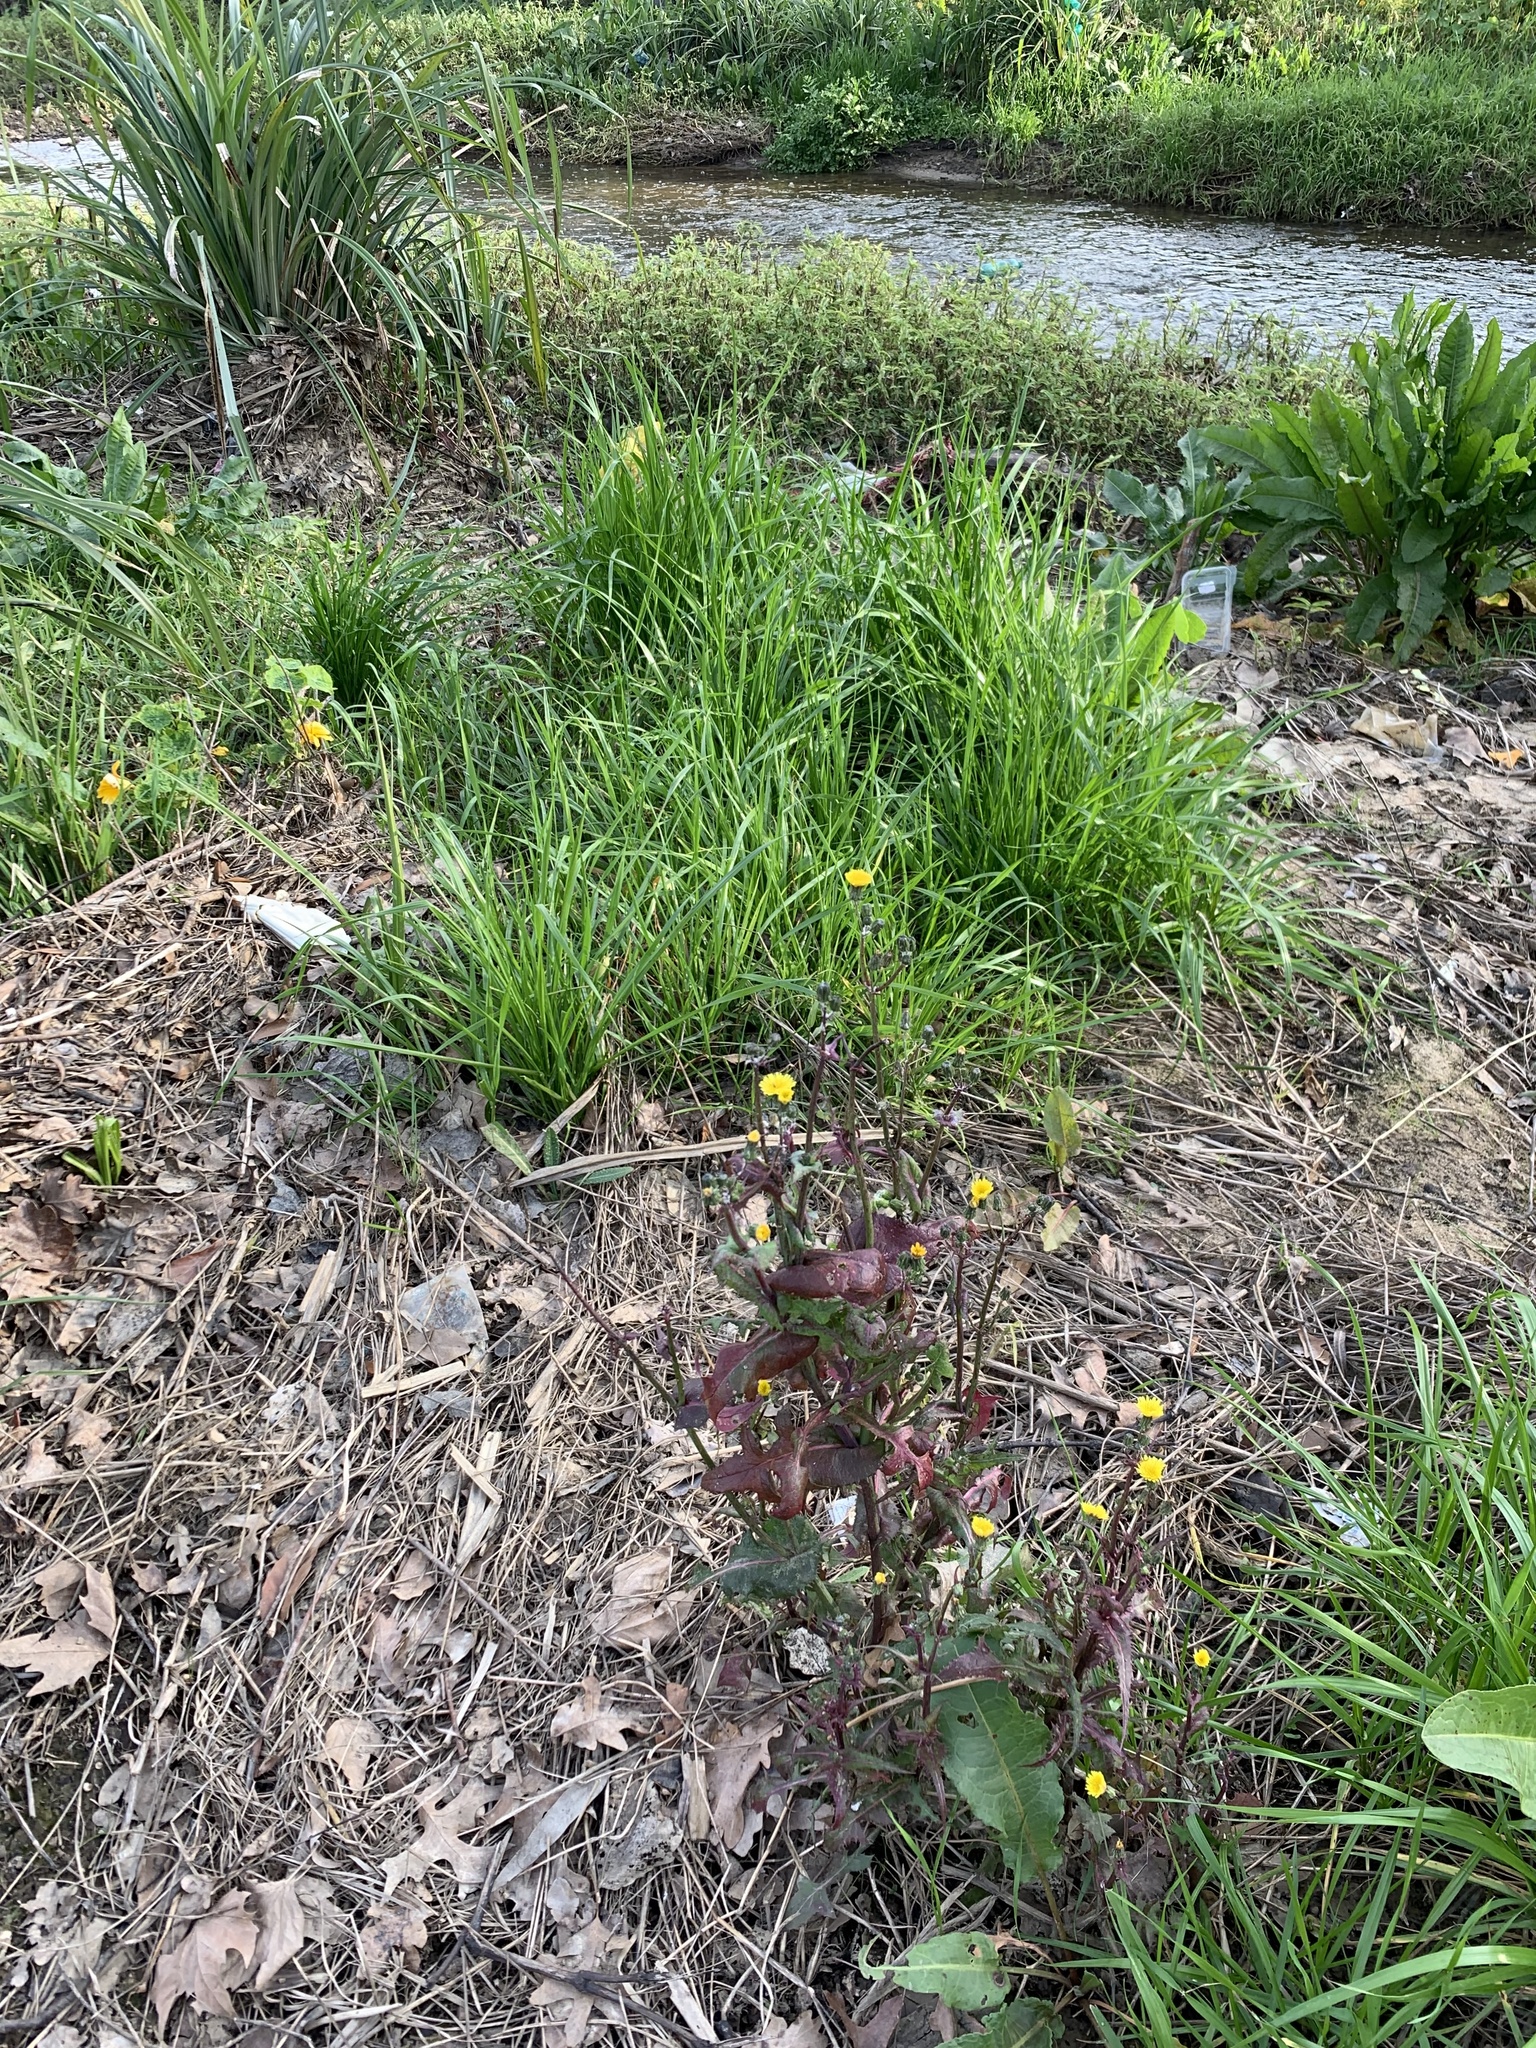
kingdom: Plantae
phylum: Tracheophyta
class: Magnoliopsida
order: Asterales
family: Asteraceae
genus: Sonchus
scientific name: Sonchus oleraceus
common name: Common sowthistle
